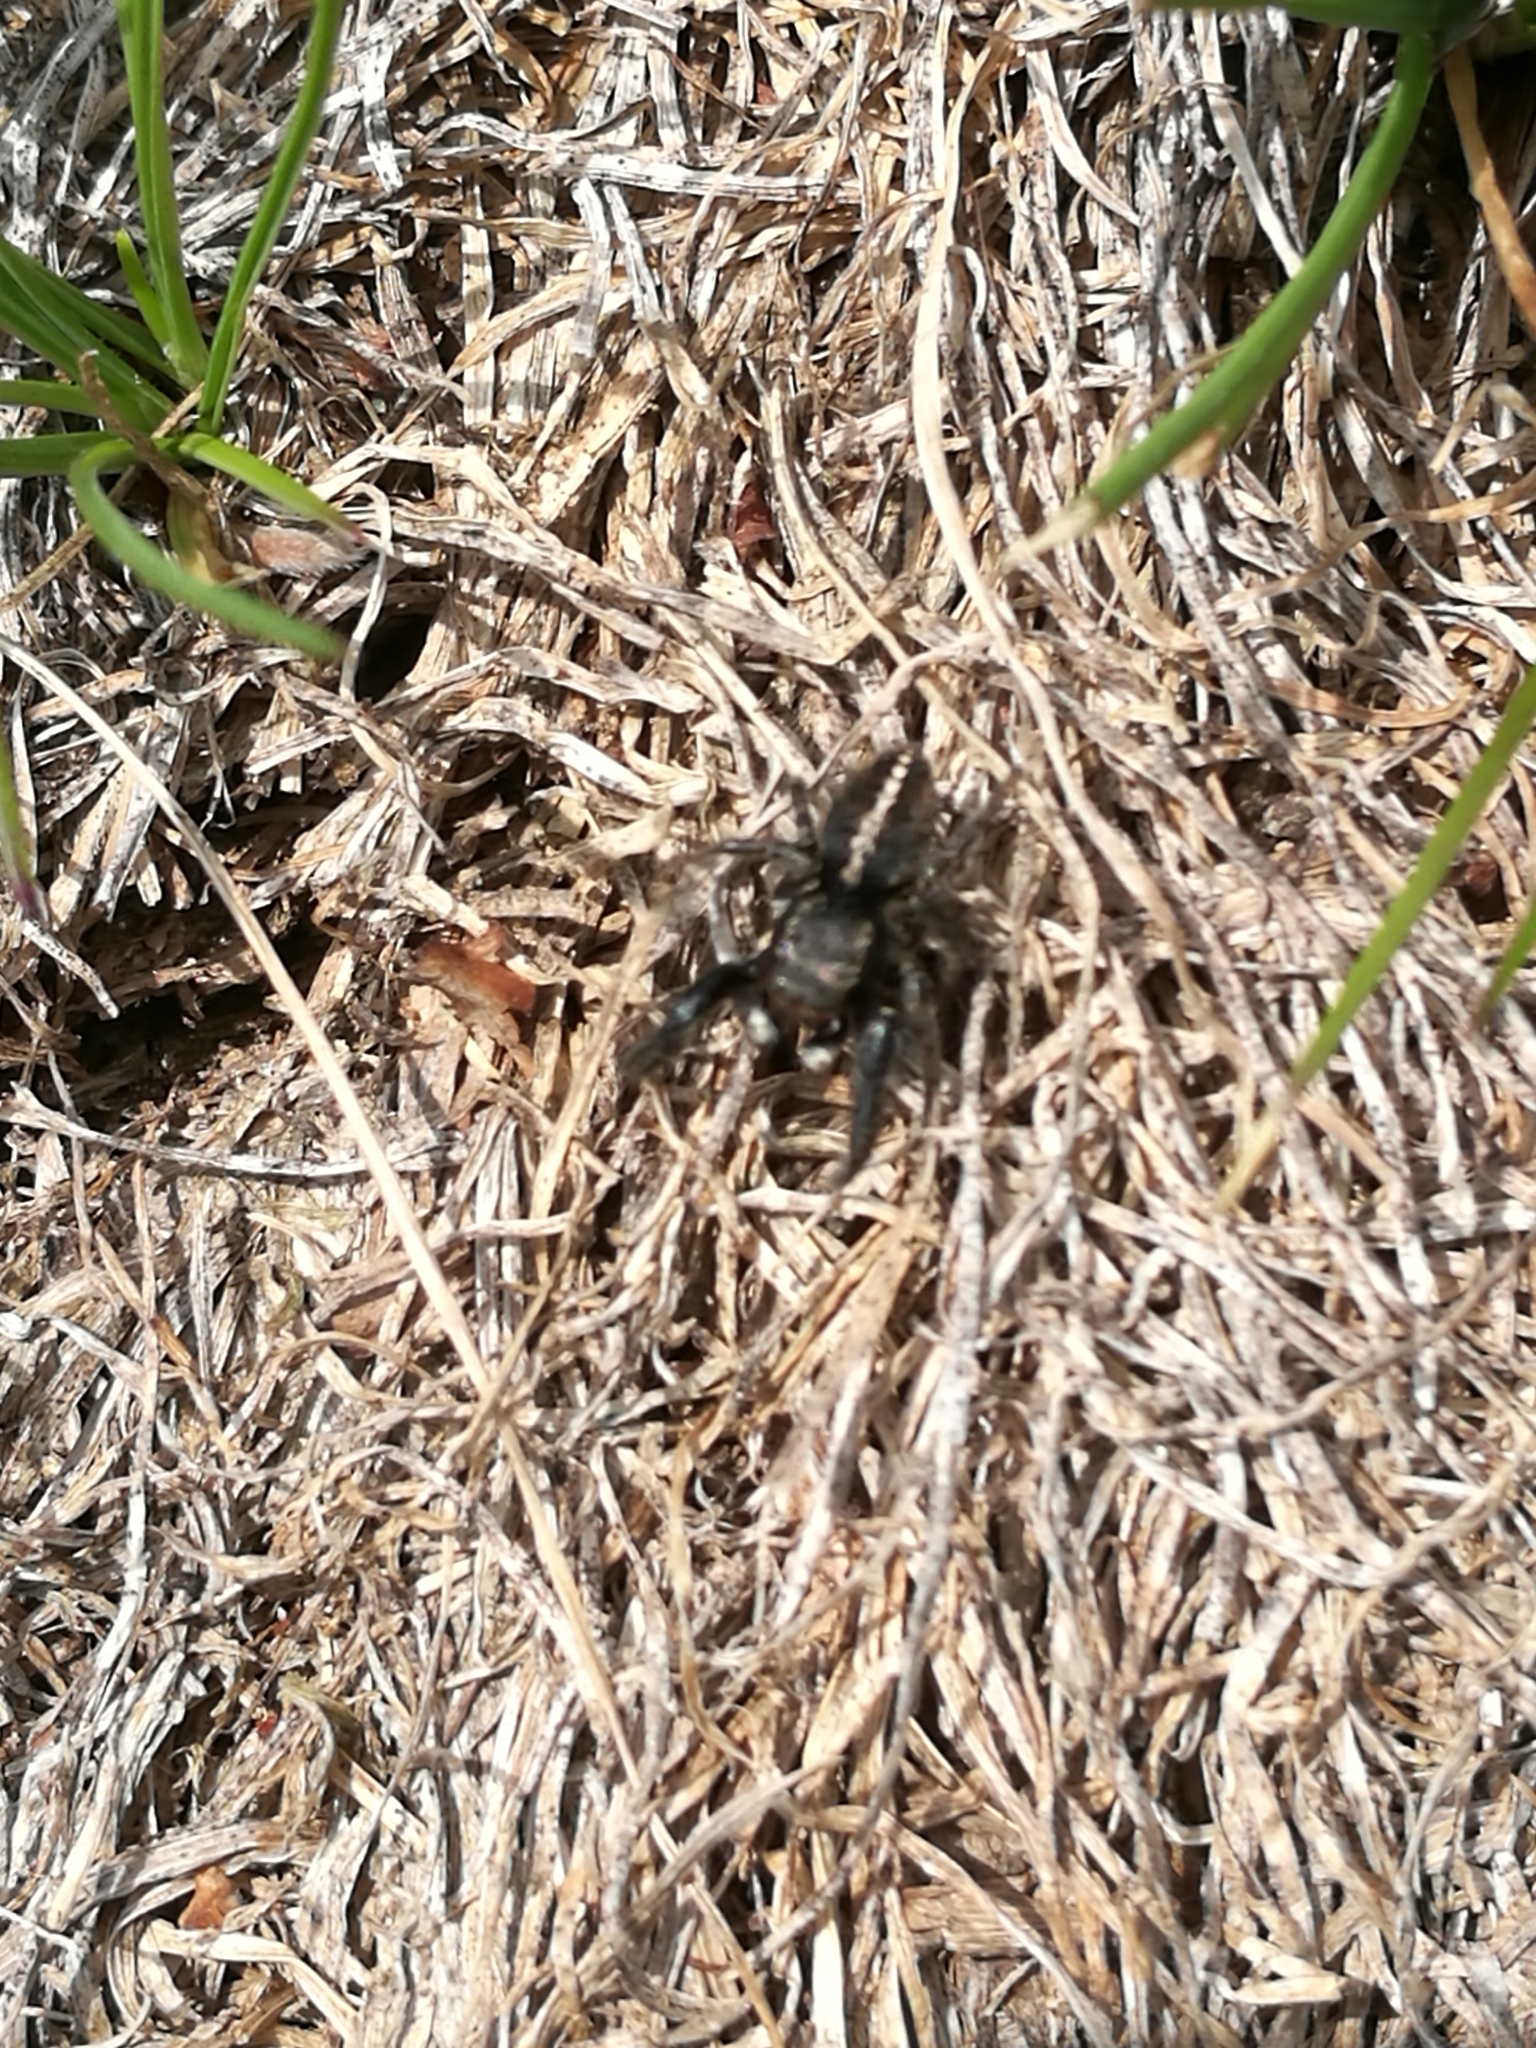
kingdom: Animalia
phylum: Arthropoda
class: Arachnida
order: Araneae
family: Salticidae
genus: Pellenes
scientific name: Pellenes seriatus
